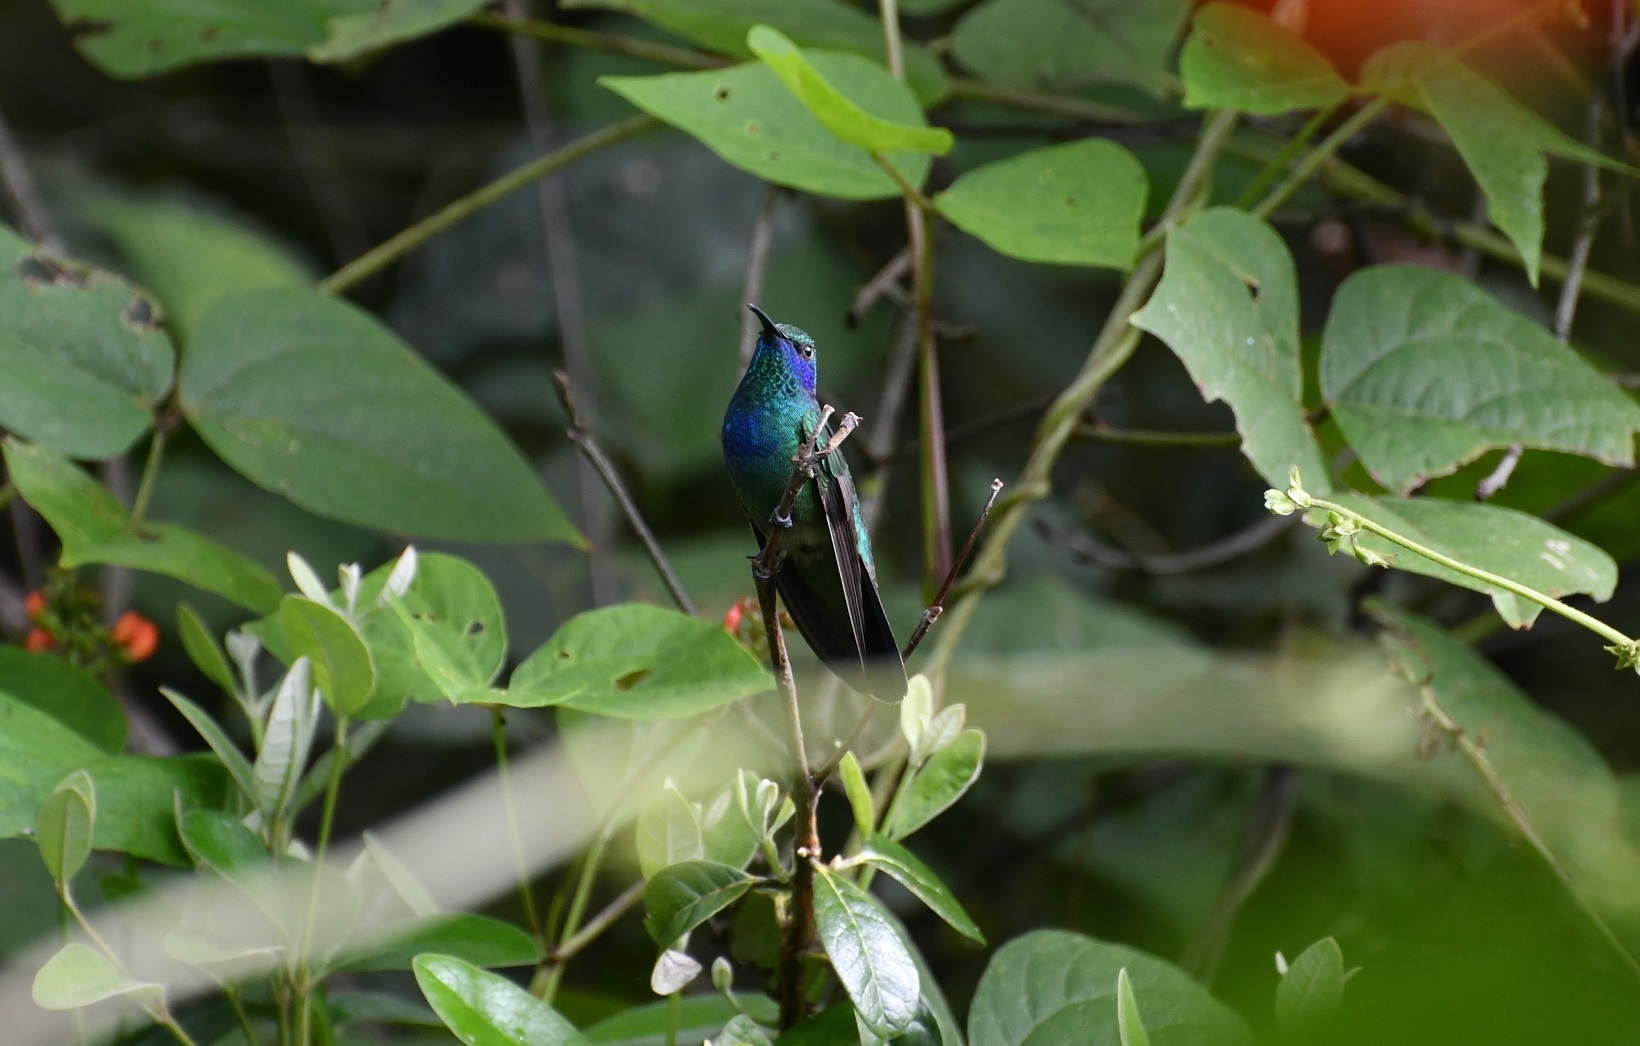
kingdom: Animalia
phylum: Chordata
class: Aves
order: Apodiformes
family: Trochilidae
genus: Colibri
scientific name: Colibri thalassinus
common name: Green violetear
